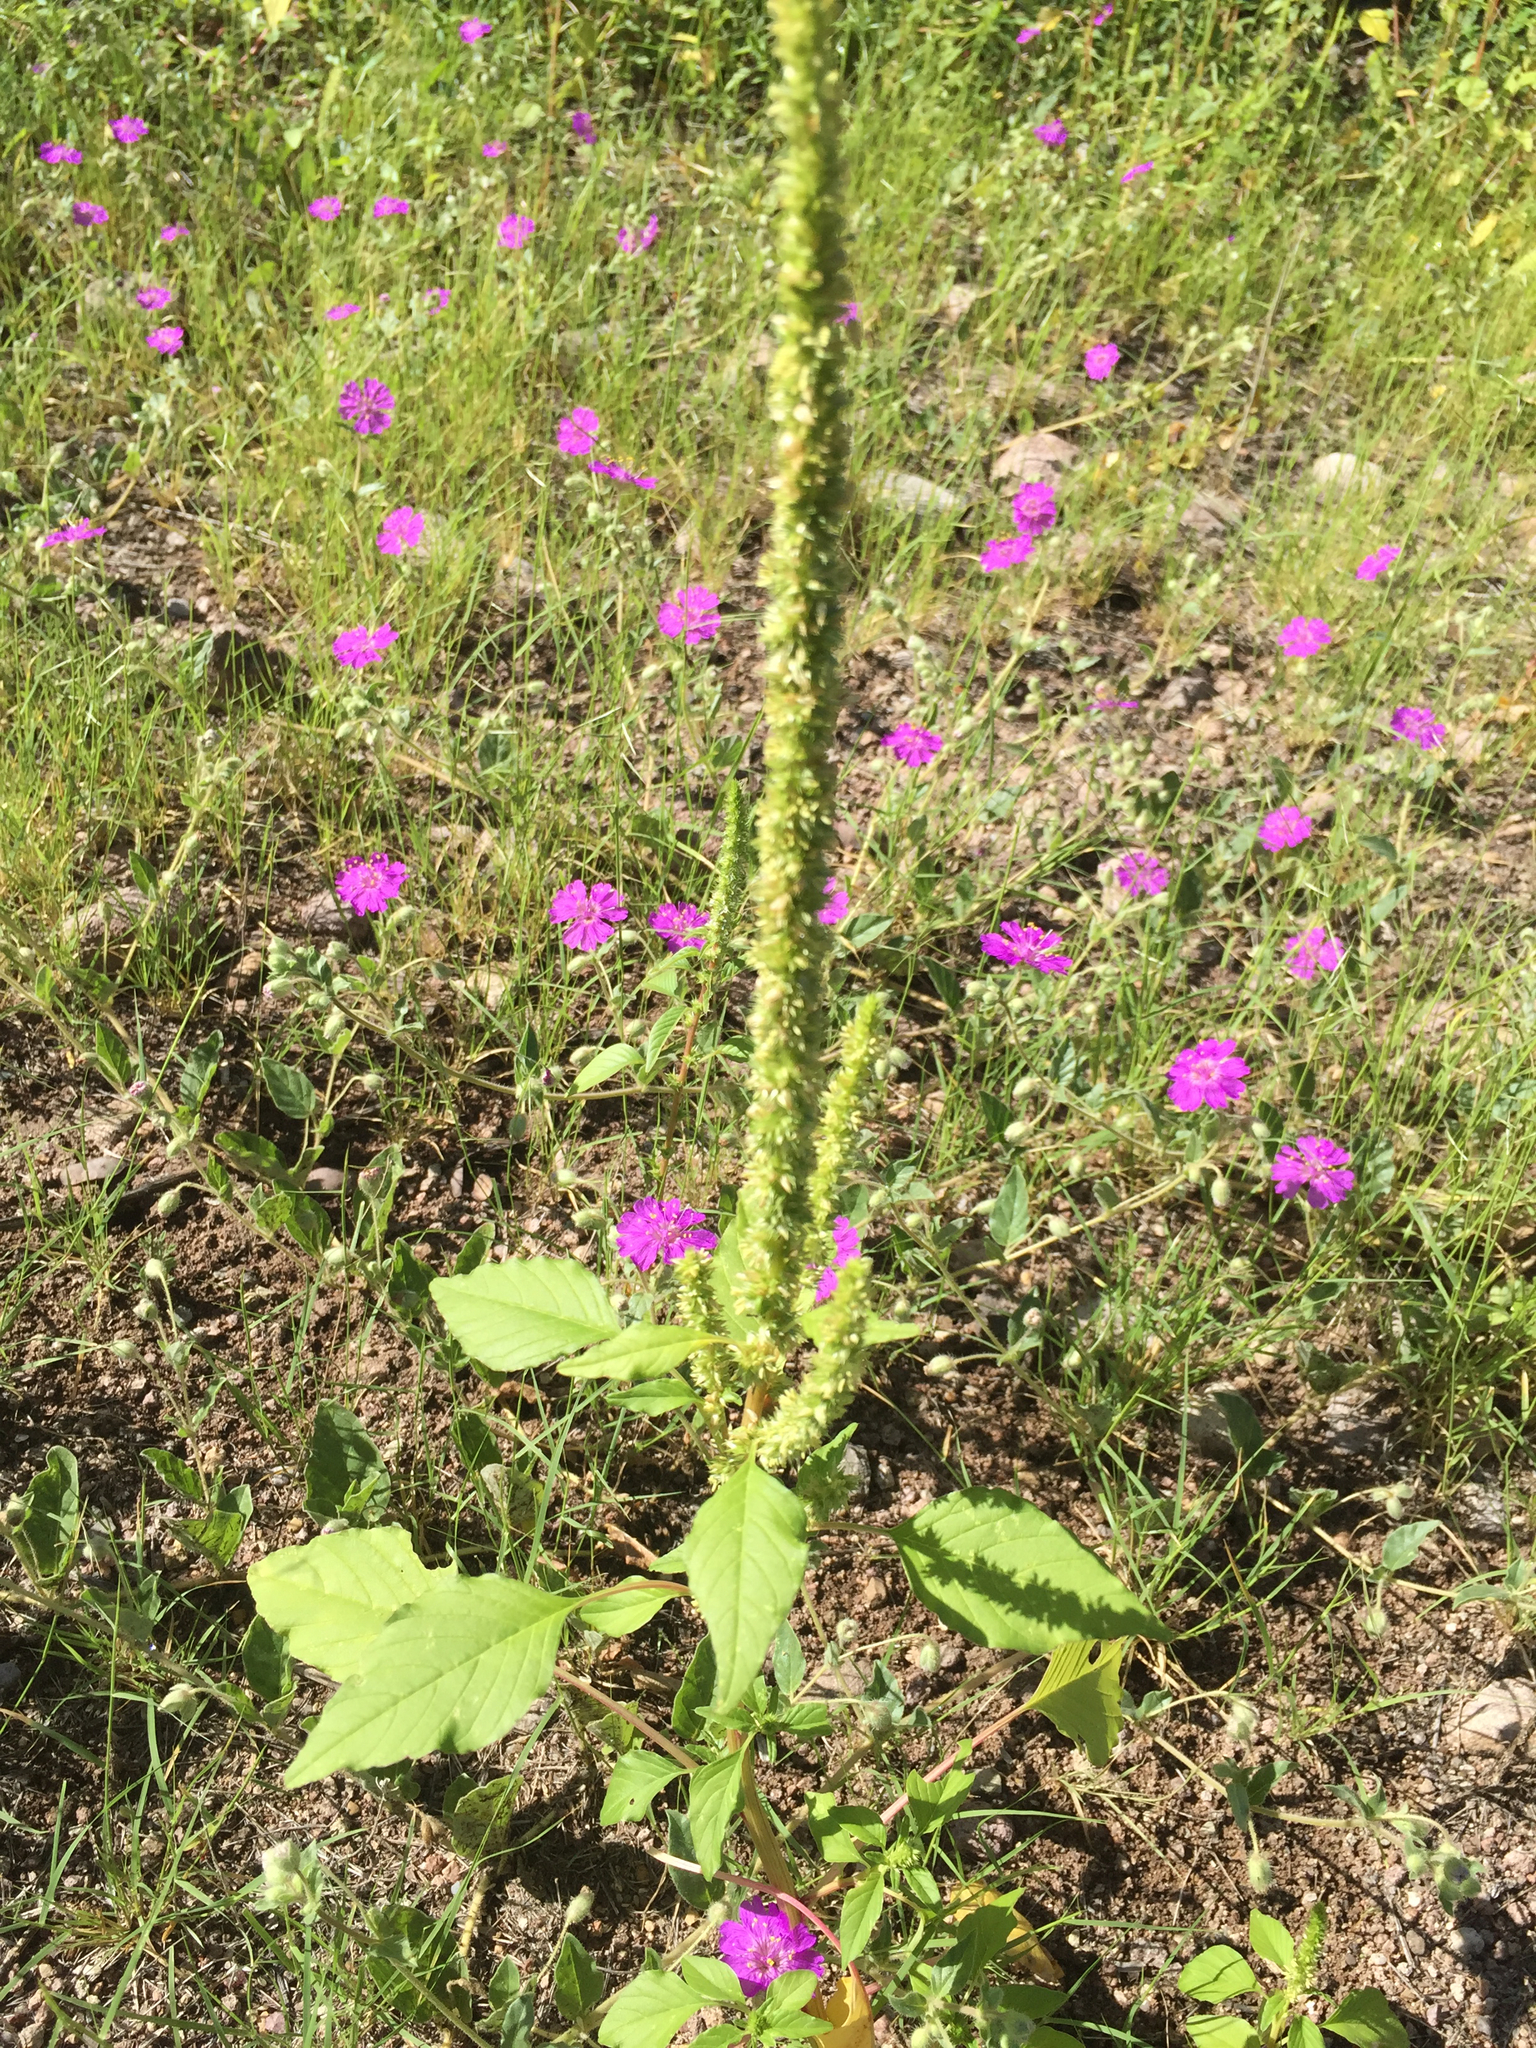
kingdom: Plantae
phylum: Tracheophyta
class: Magnoliopsida
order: Caryophyllales
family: Amaranthaceae
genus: Amaranthus
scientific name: Amaranthus palmeri
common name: Dioecious amaranth
